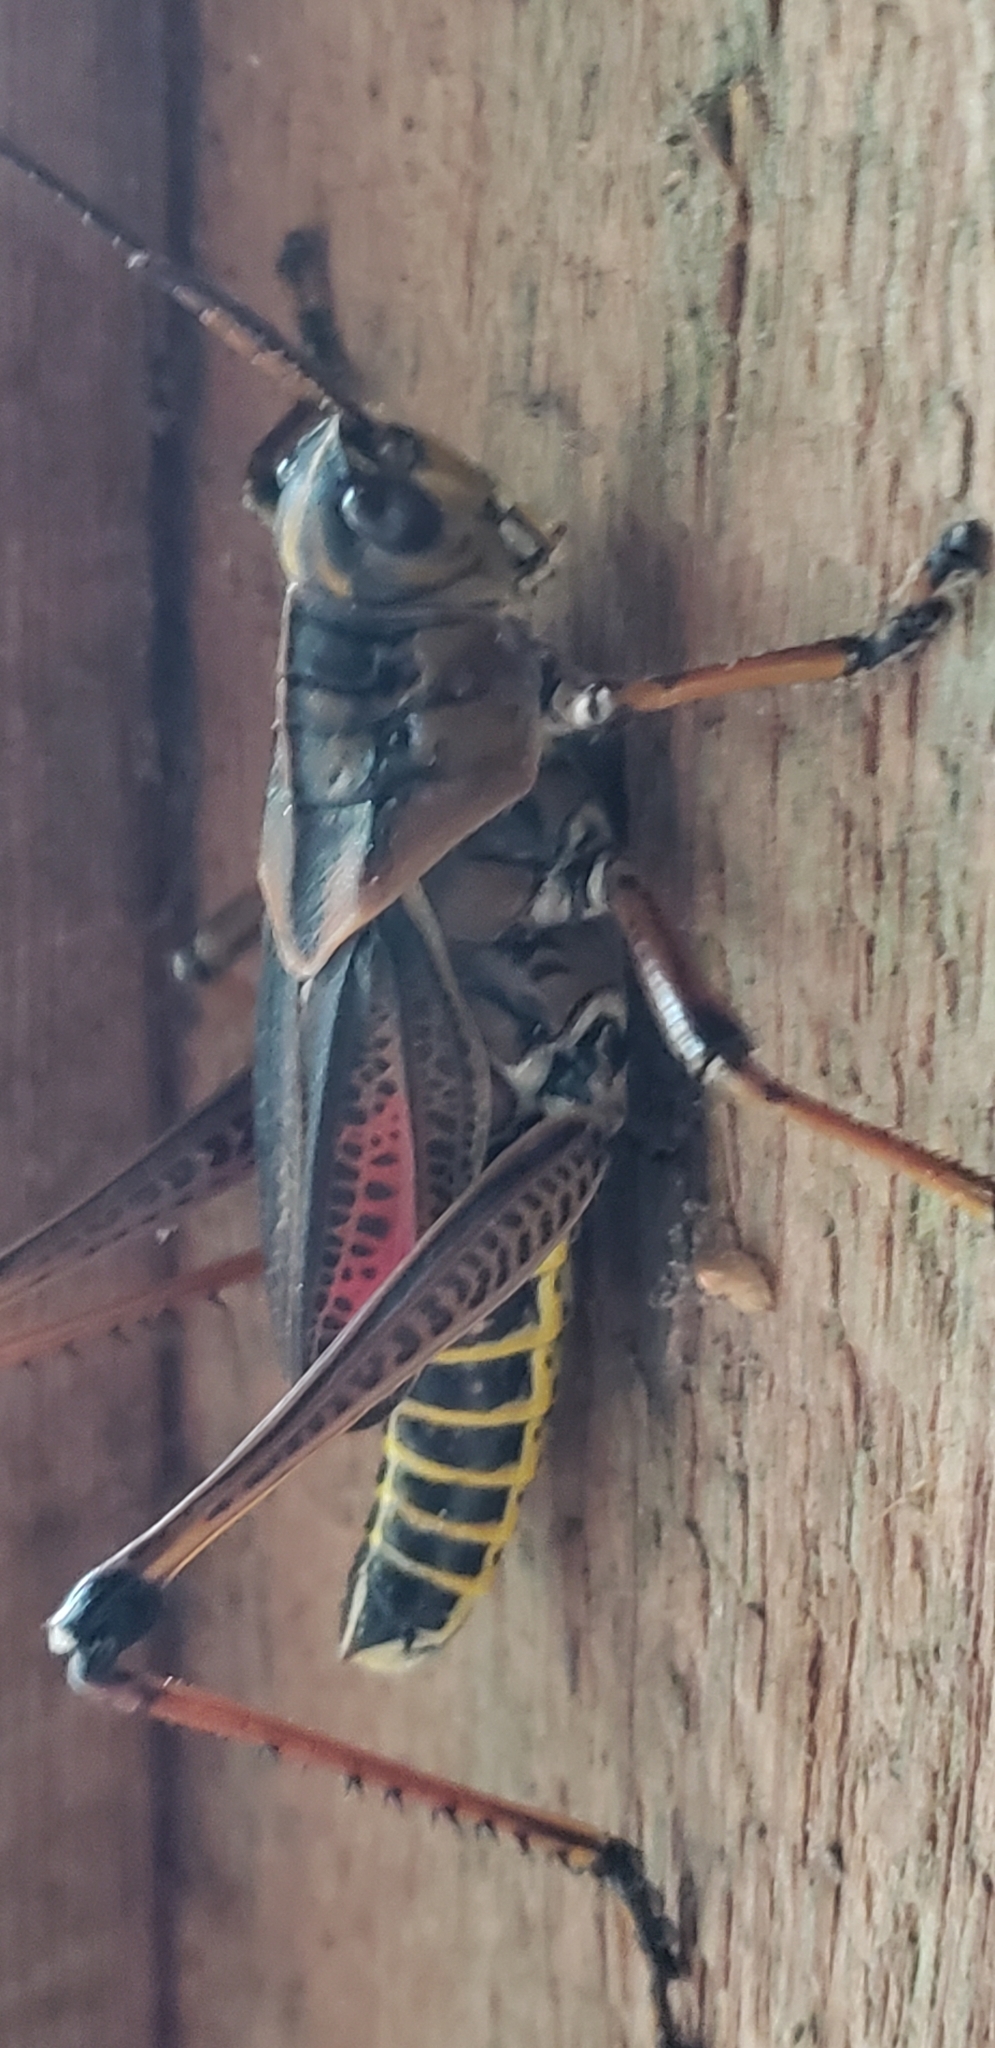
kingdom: Animalia
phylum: Arthropoda
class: Insecta
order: Orthoptera
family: Romaleidae
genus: Romalea
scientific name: Romalea microptera
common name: Eastern lubber grasshopper
